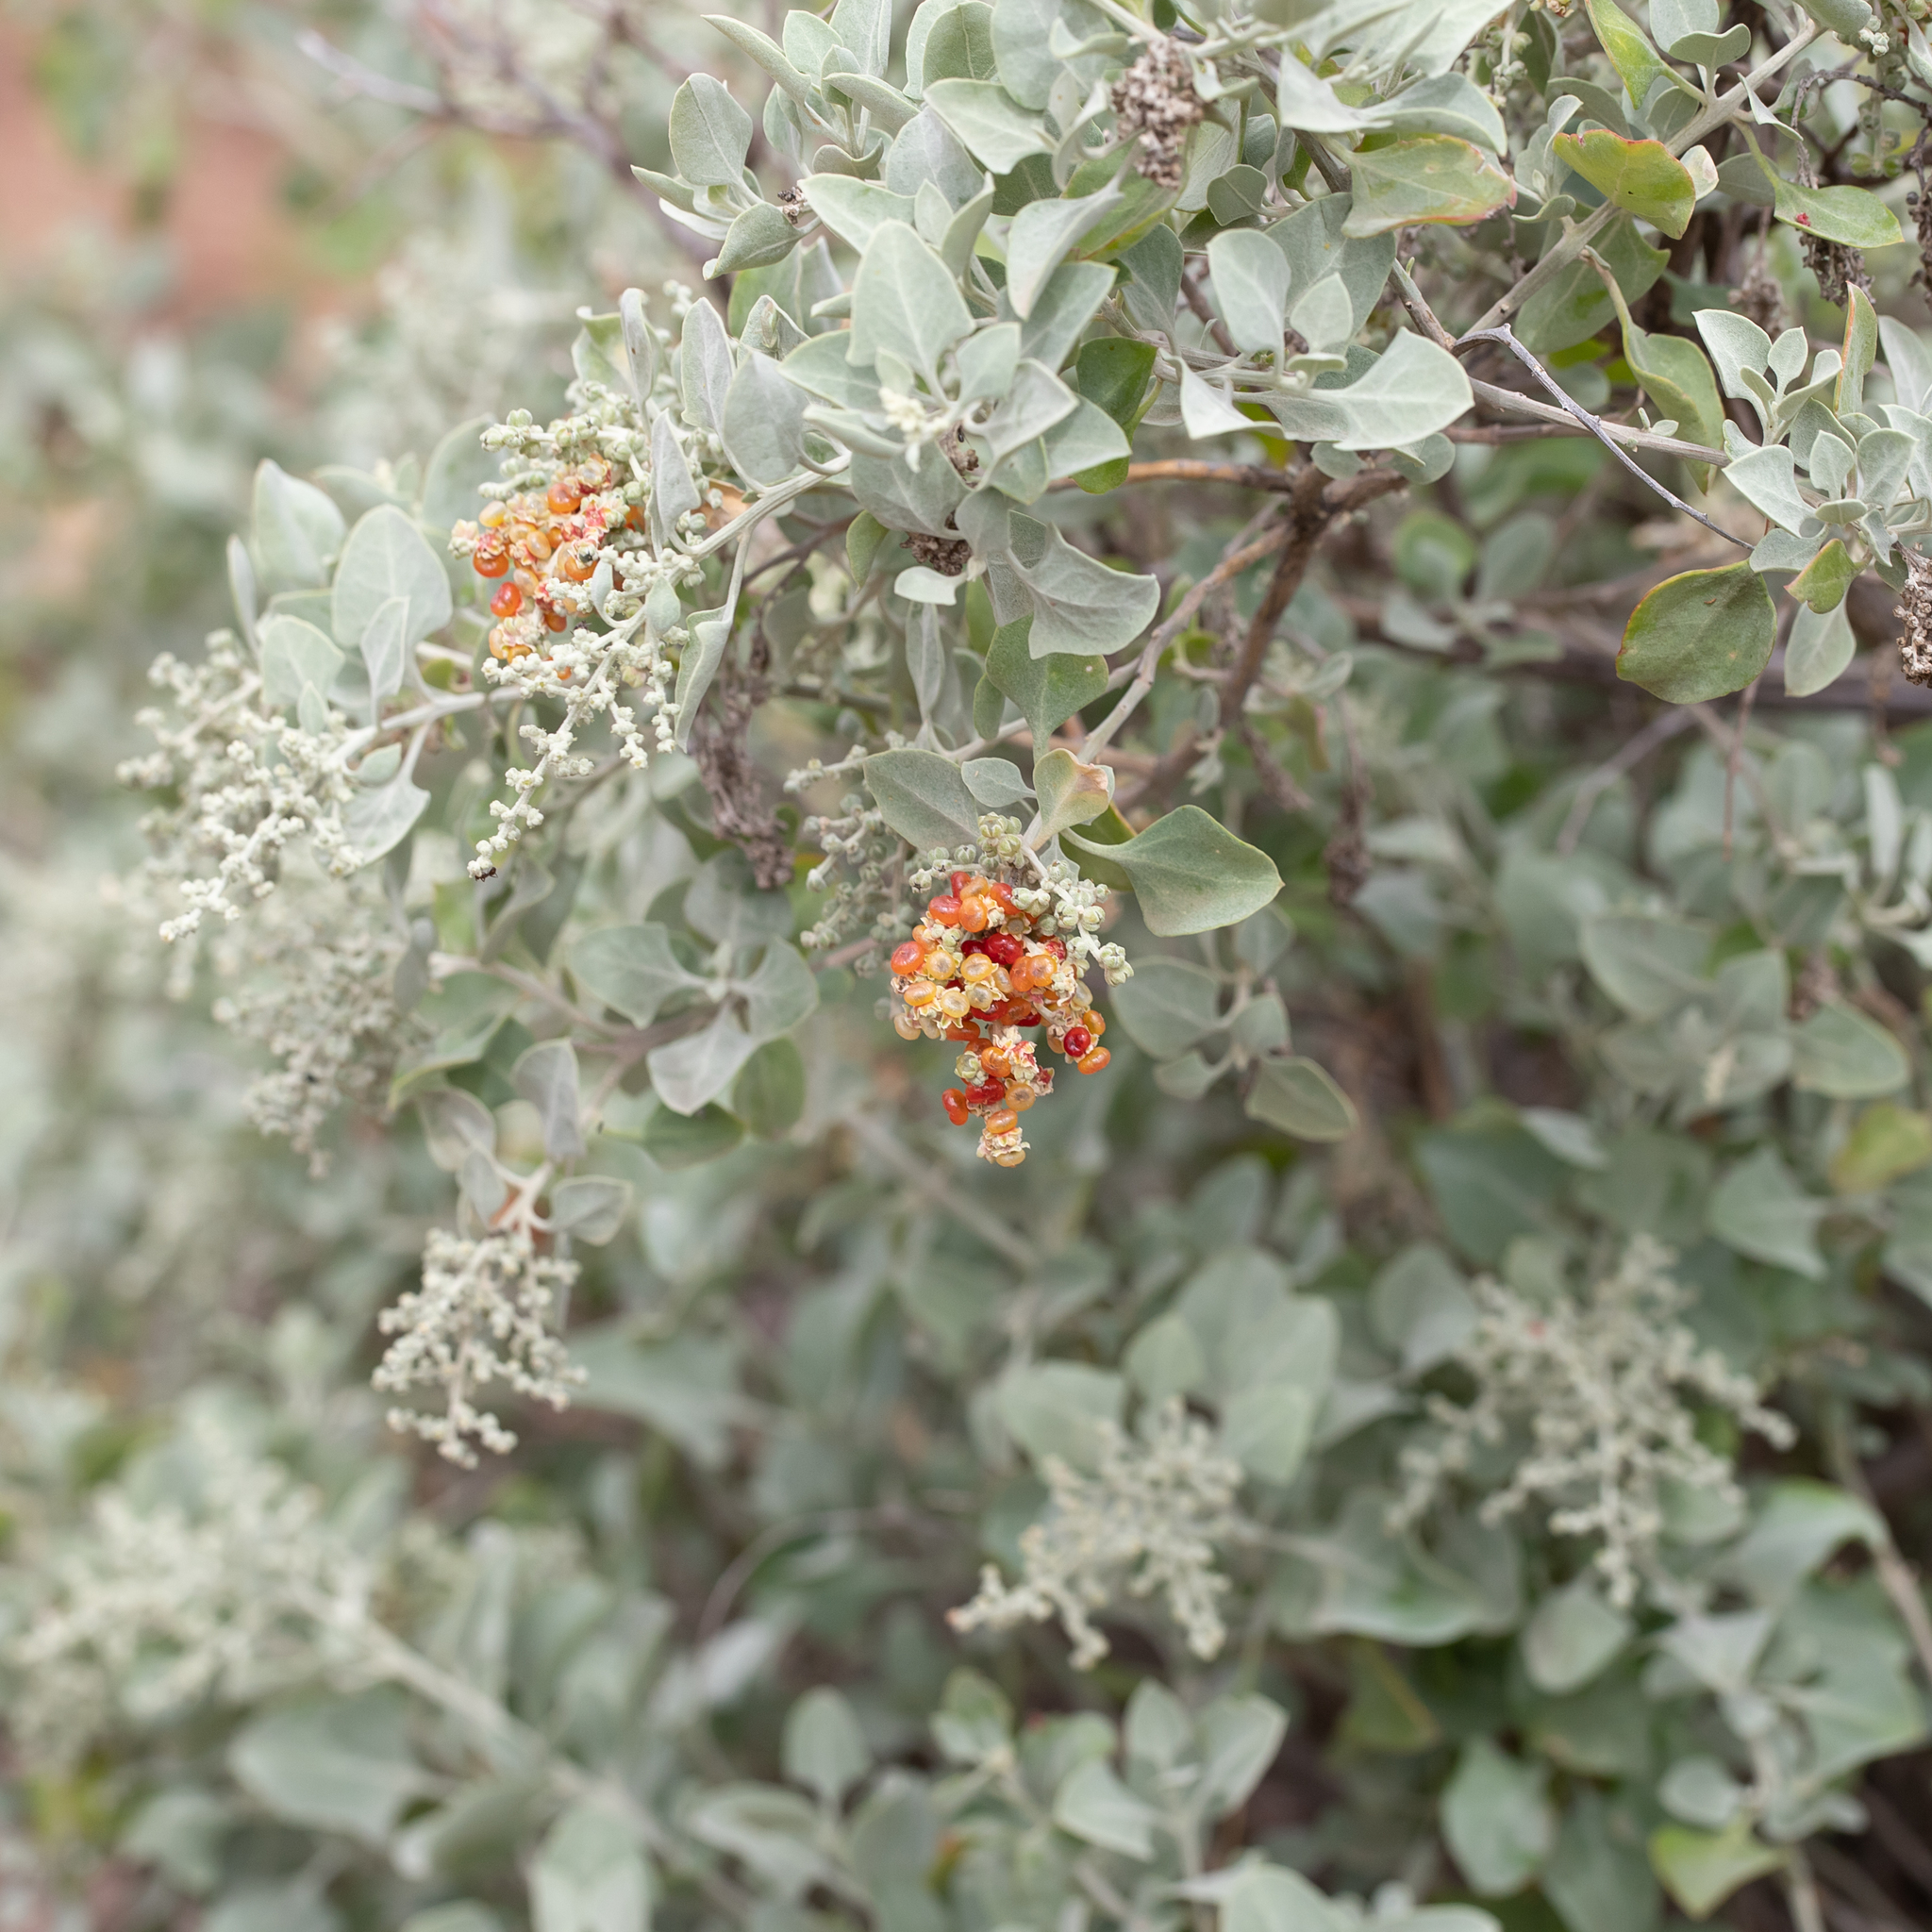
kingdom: Plantae
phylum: Tracheophyta
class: Magnoliopsida
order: Caryophyllales
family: Amaranthaceae
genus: Chenopodium
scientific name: Chenopodium parabolicum
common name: Old-man-saltbush
